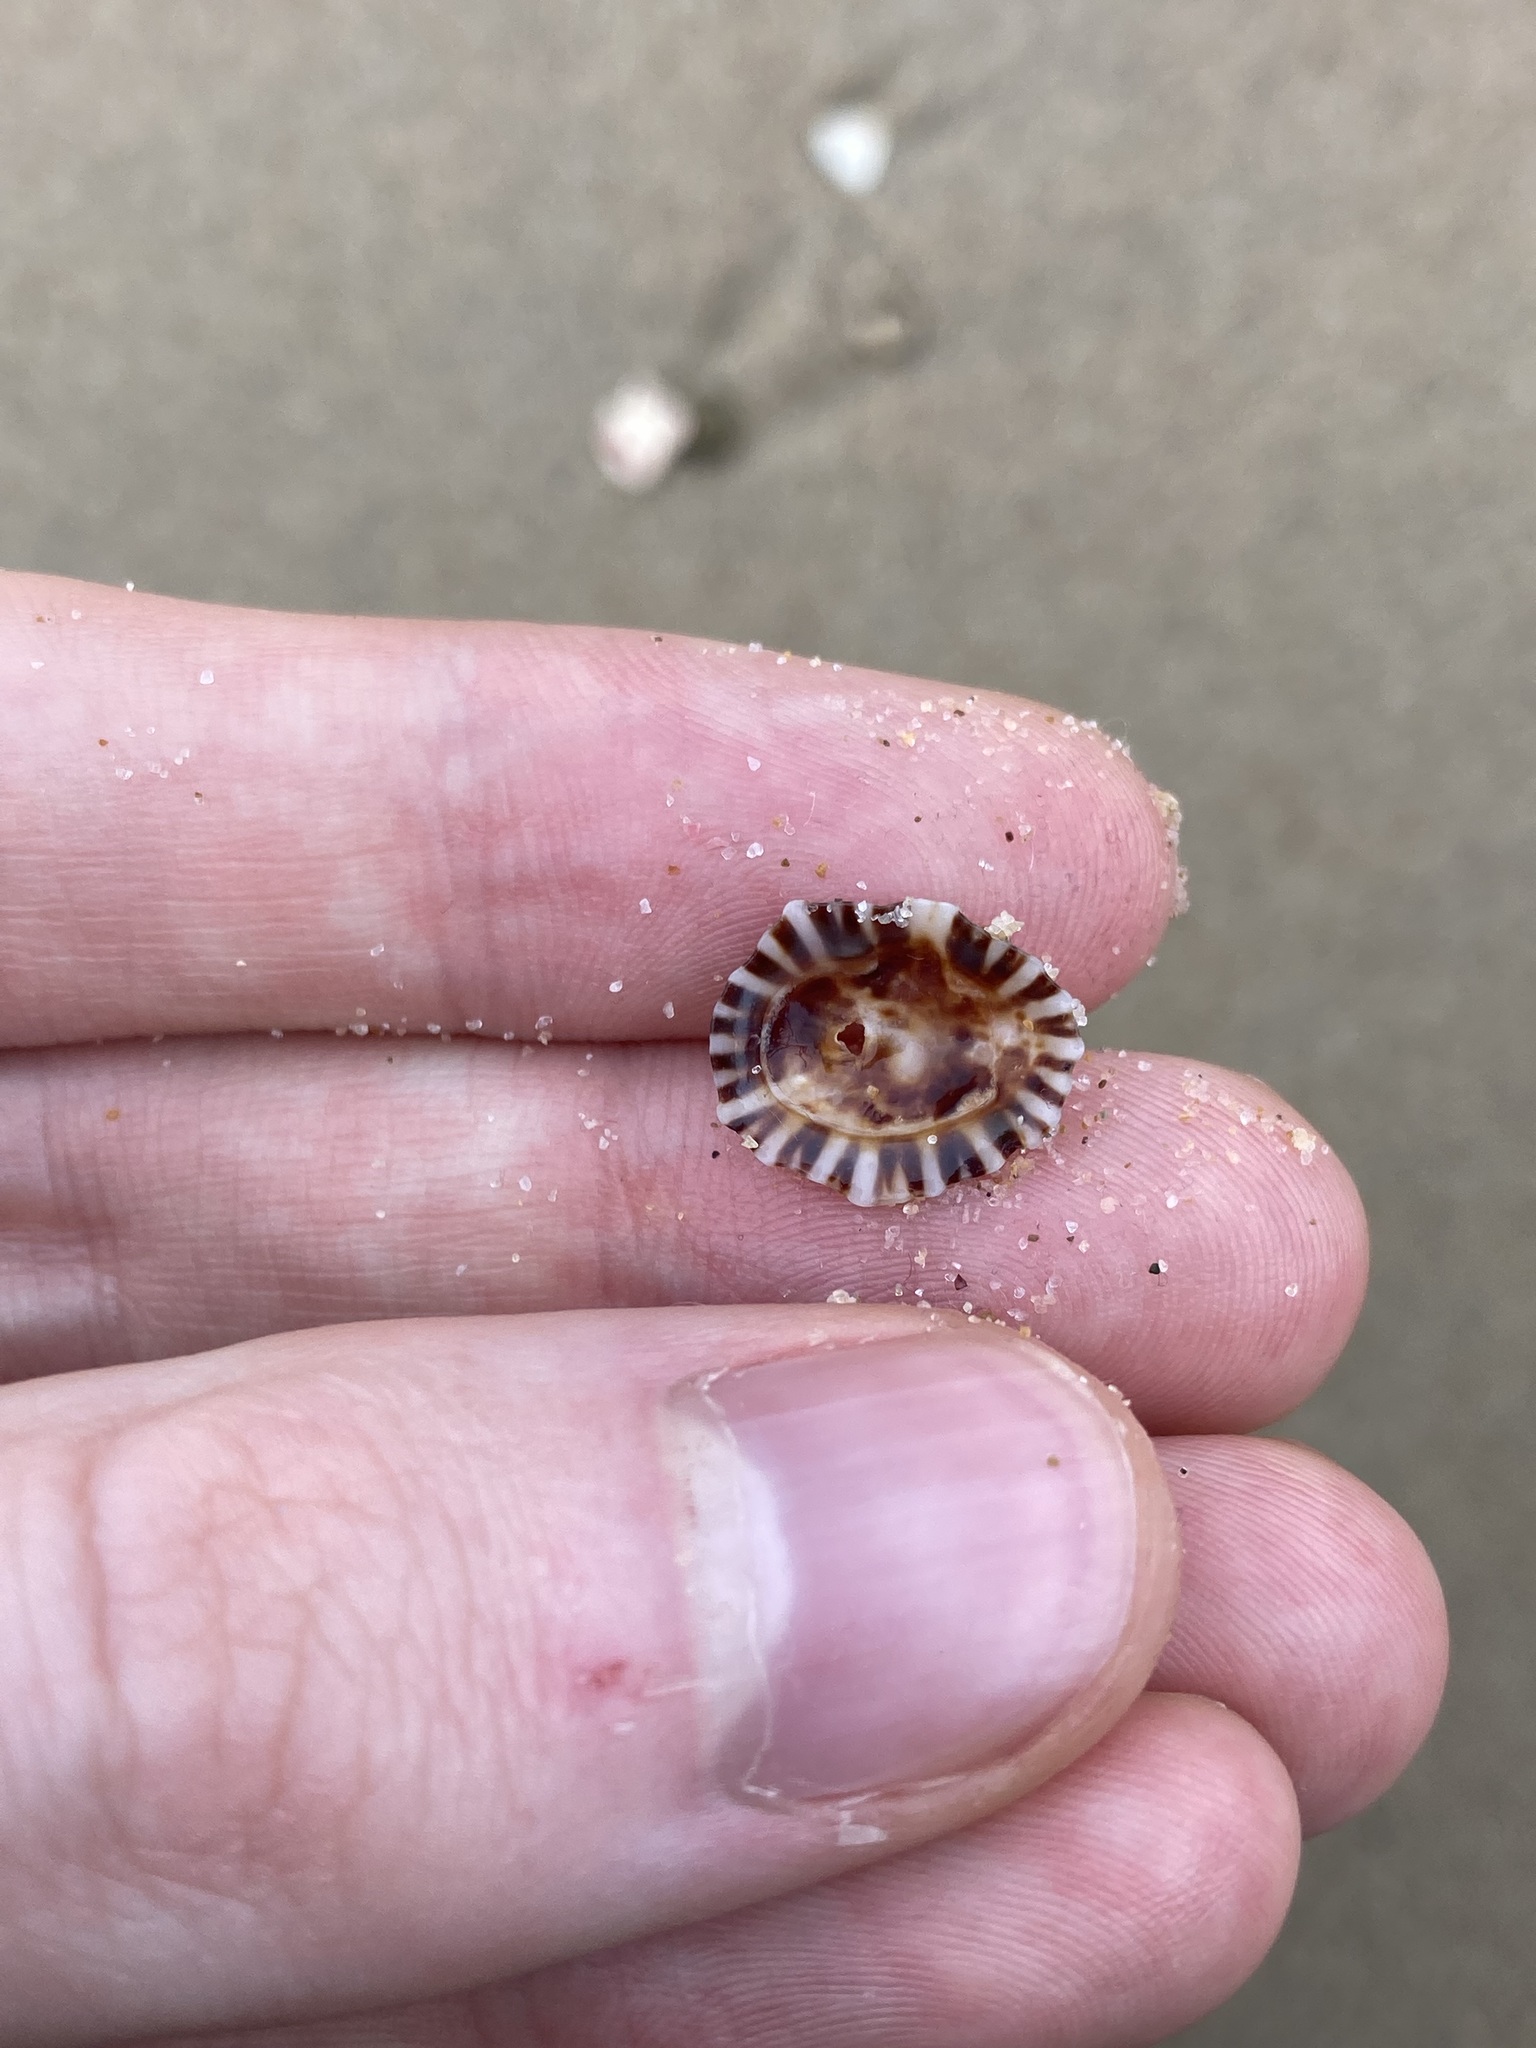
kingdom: Animalia
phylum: Mollusca
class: Gastropoda
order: Siphonariida
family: Siphonariidae
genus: Siphonaria
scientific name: Siphonaria denticulata
